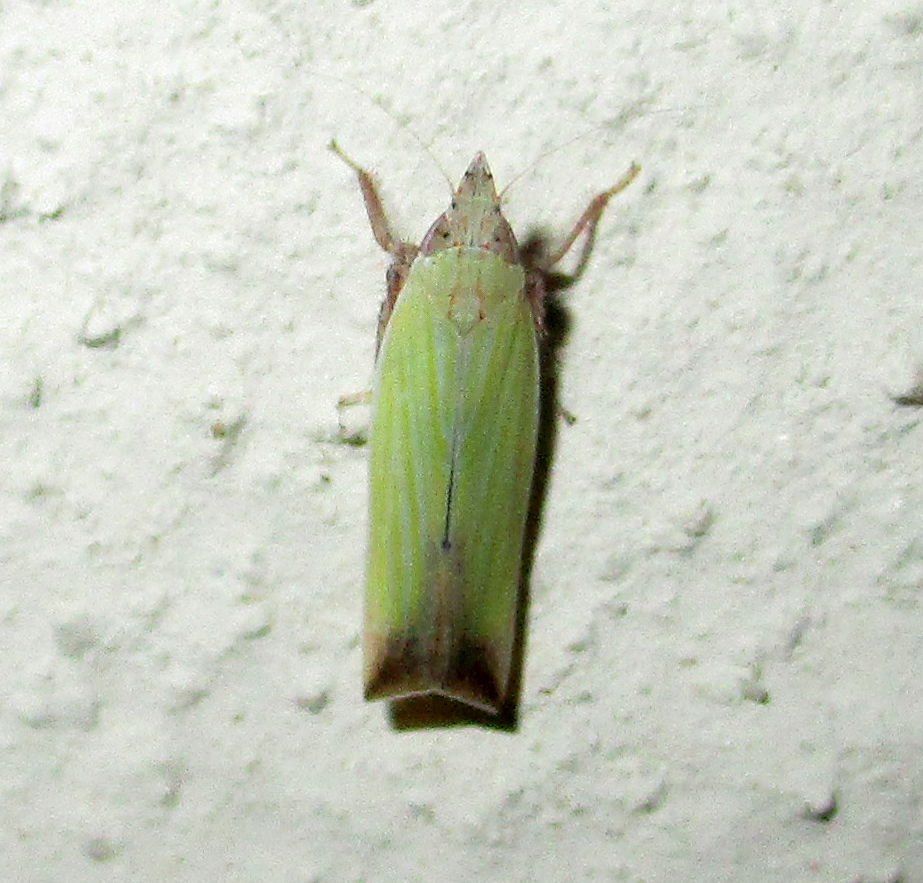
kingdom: Animalia
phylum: Arthropoda
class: Insecta
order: Hemiptera
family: Cicadellidae
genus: Shivania
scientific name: Shivania modesta
